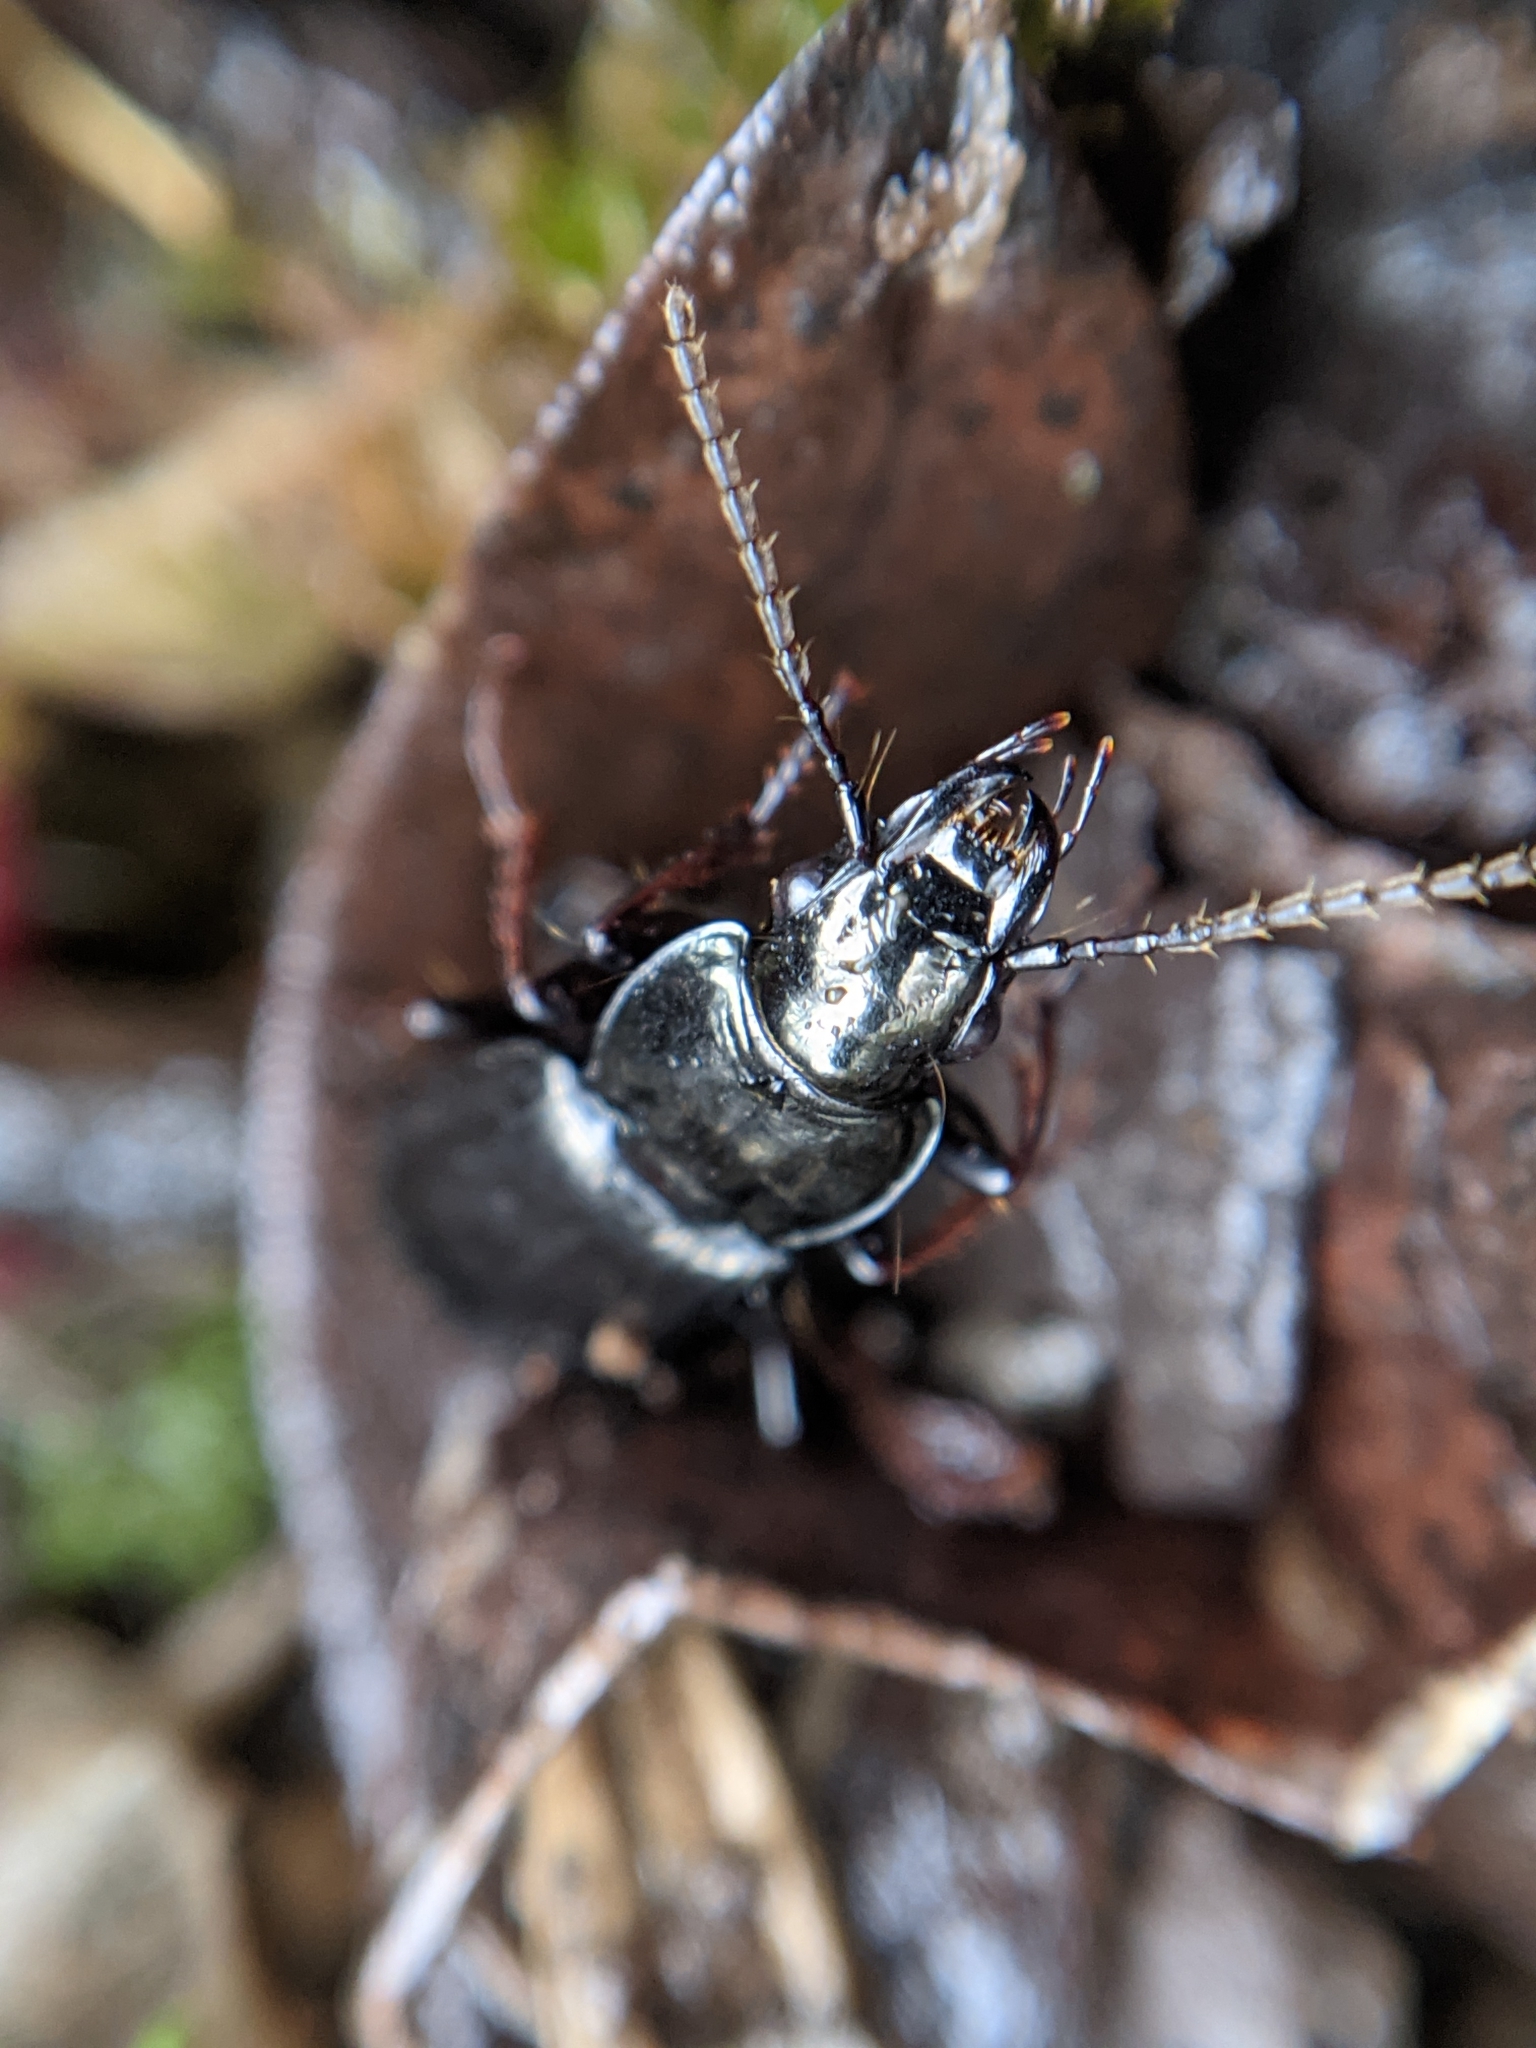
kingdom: Animalia
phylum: Arthropoda
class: Insecta
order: Coleoptera
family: Carabidae
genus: Pterostichus
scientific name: Pterostichus oblongopunctatus
